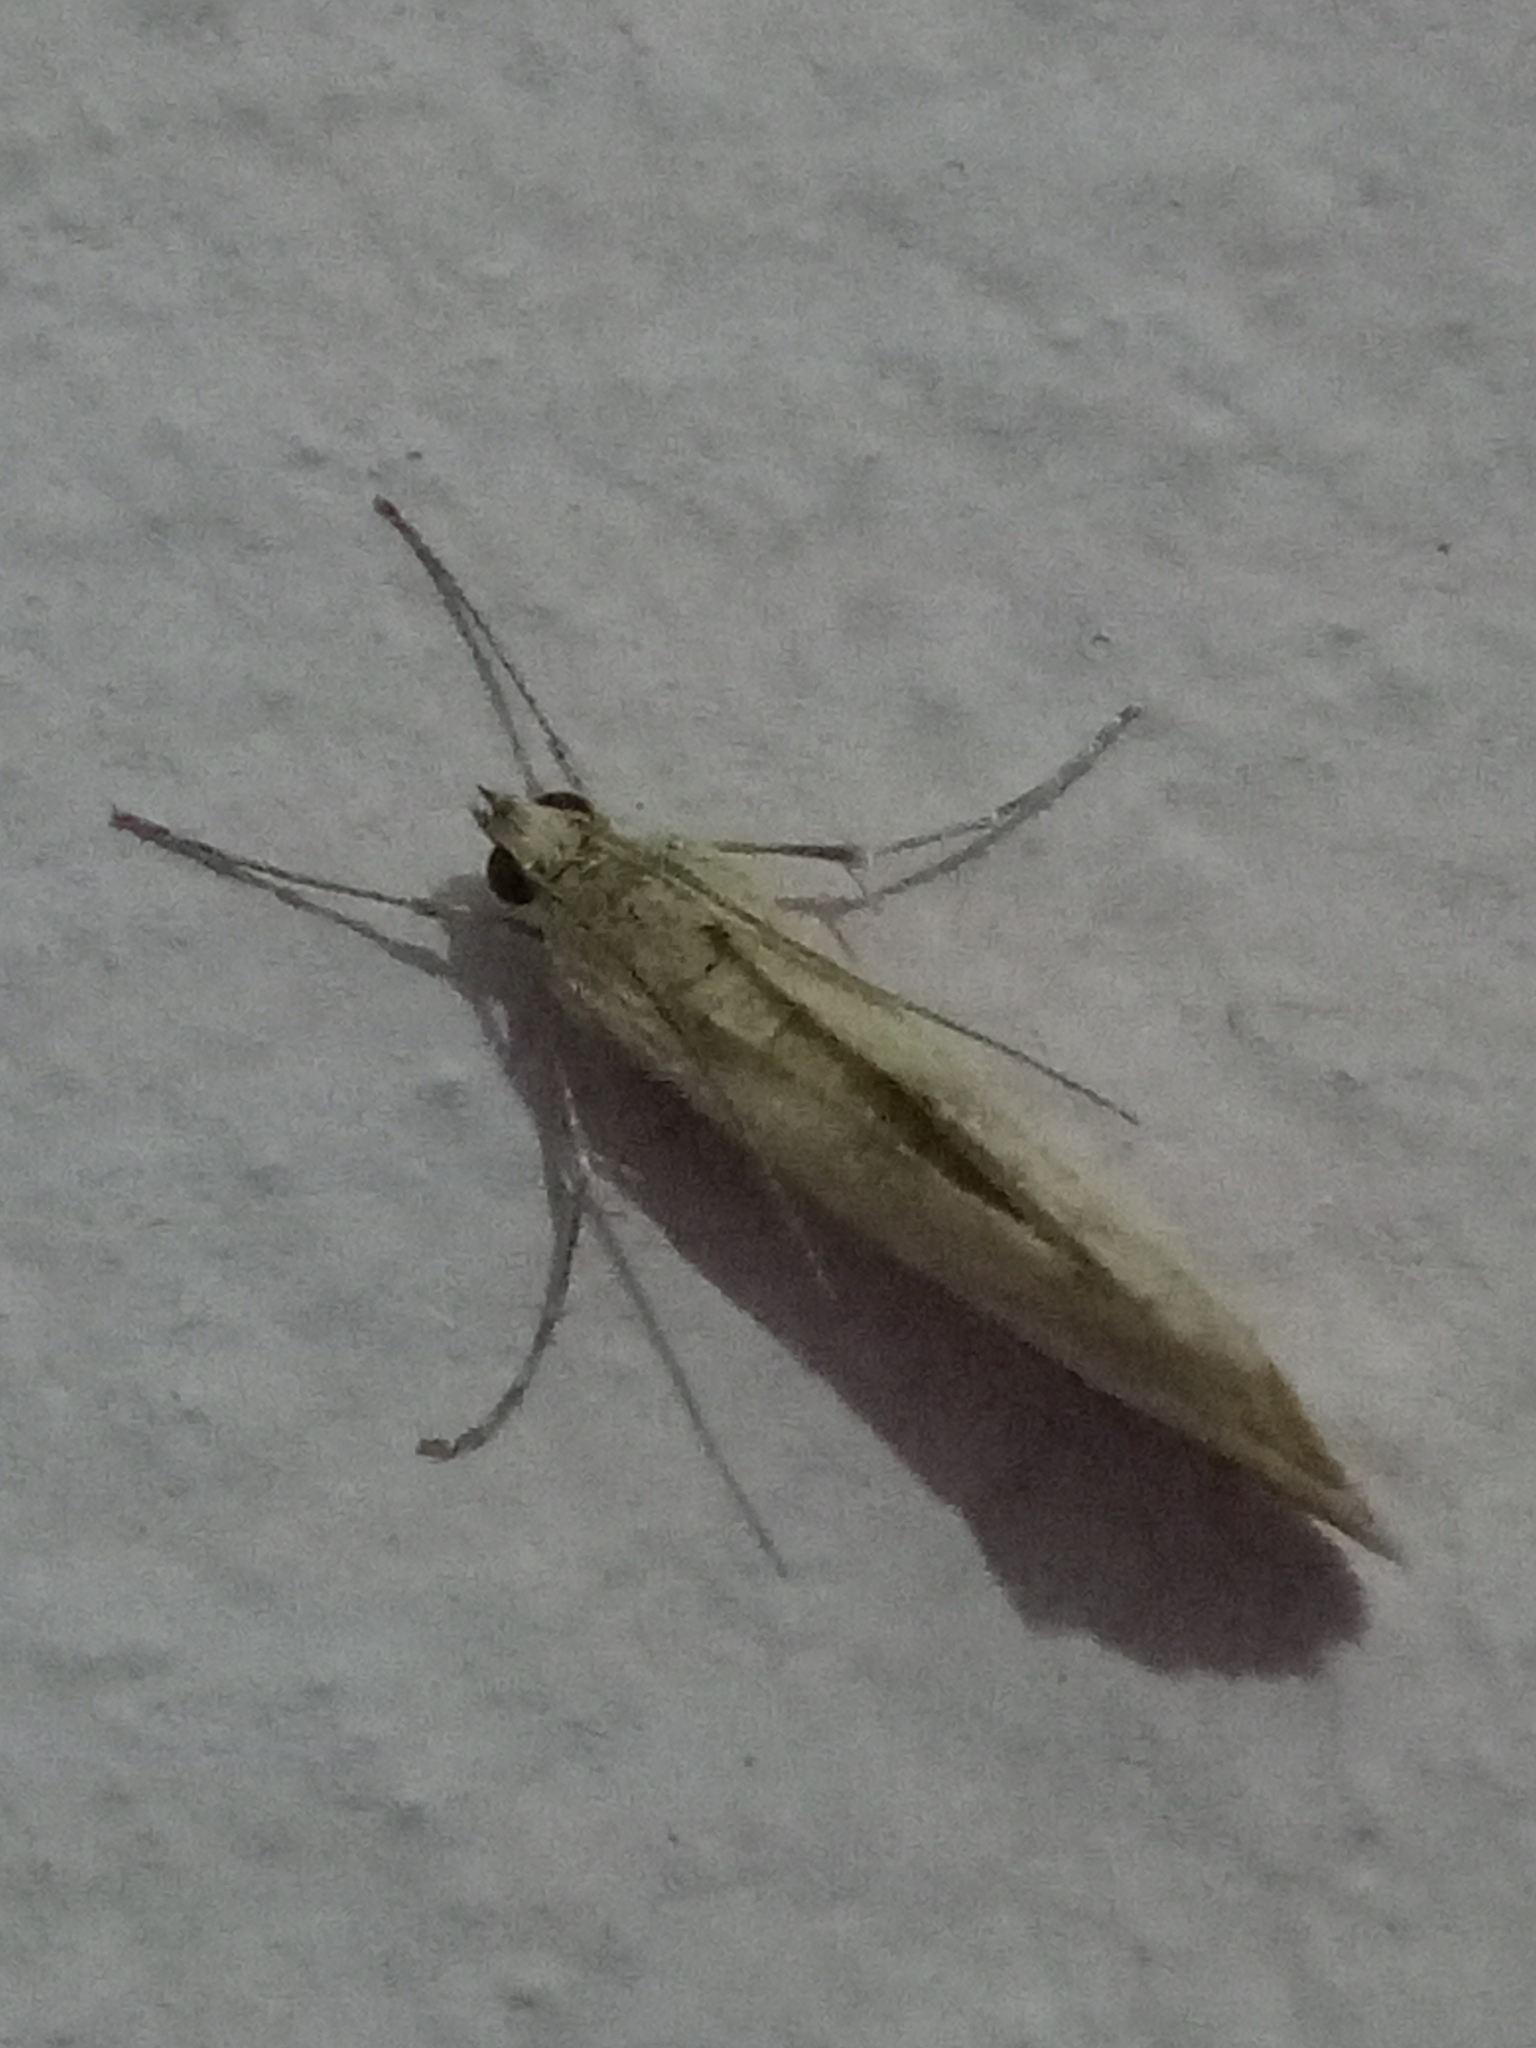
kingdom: Animalia
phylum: Arthropoda
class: Insecta
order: Lepidoptera
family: Crambidae
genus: Cornifrons
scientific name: Cornifrons ulceratalis
